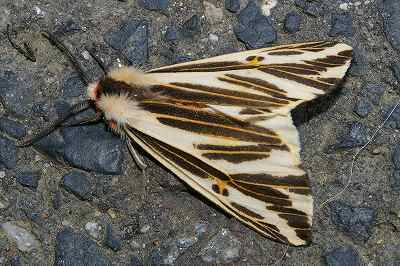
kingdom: Animalia
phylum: Arthropoda
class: Insecta
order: Lepidoptera
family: Erebidae
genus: Eospilarctia
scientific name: Eospilarctia lewisii
